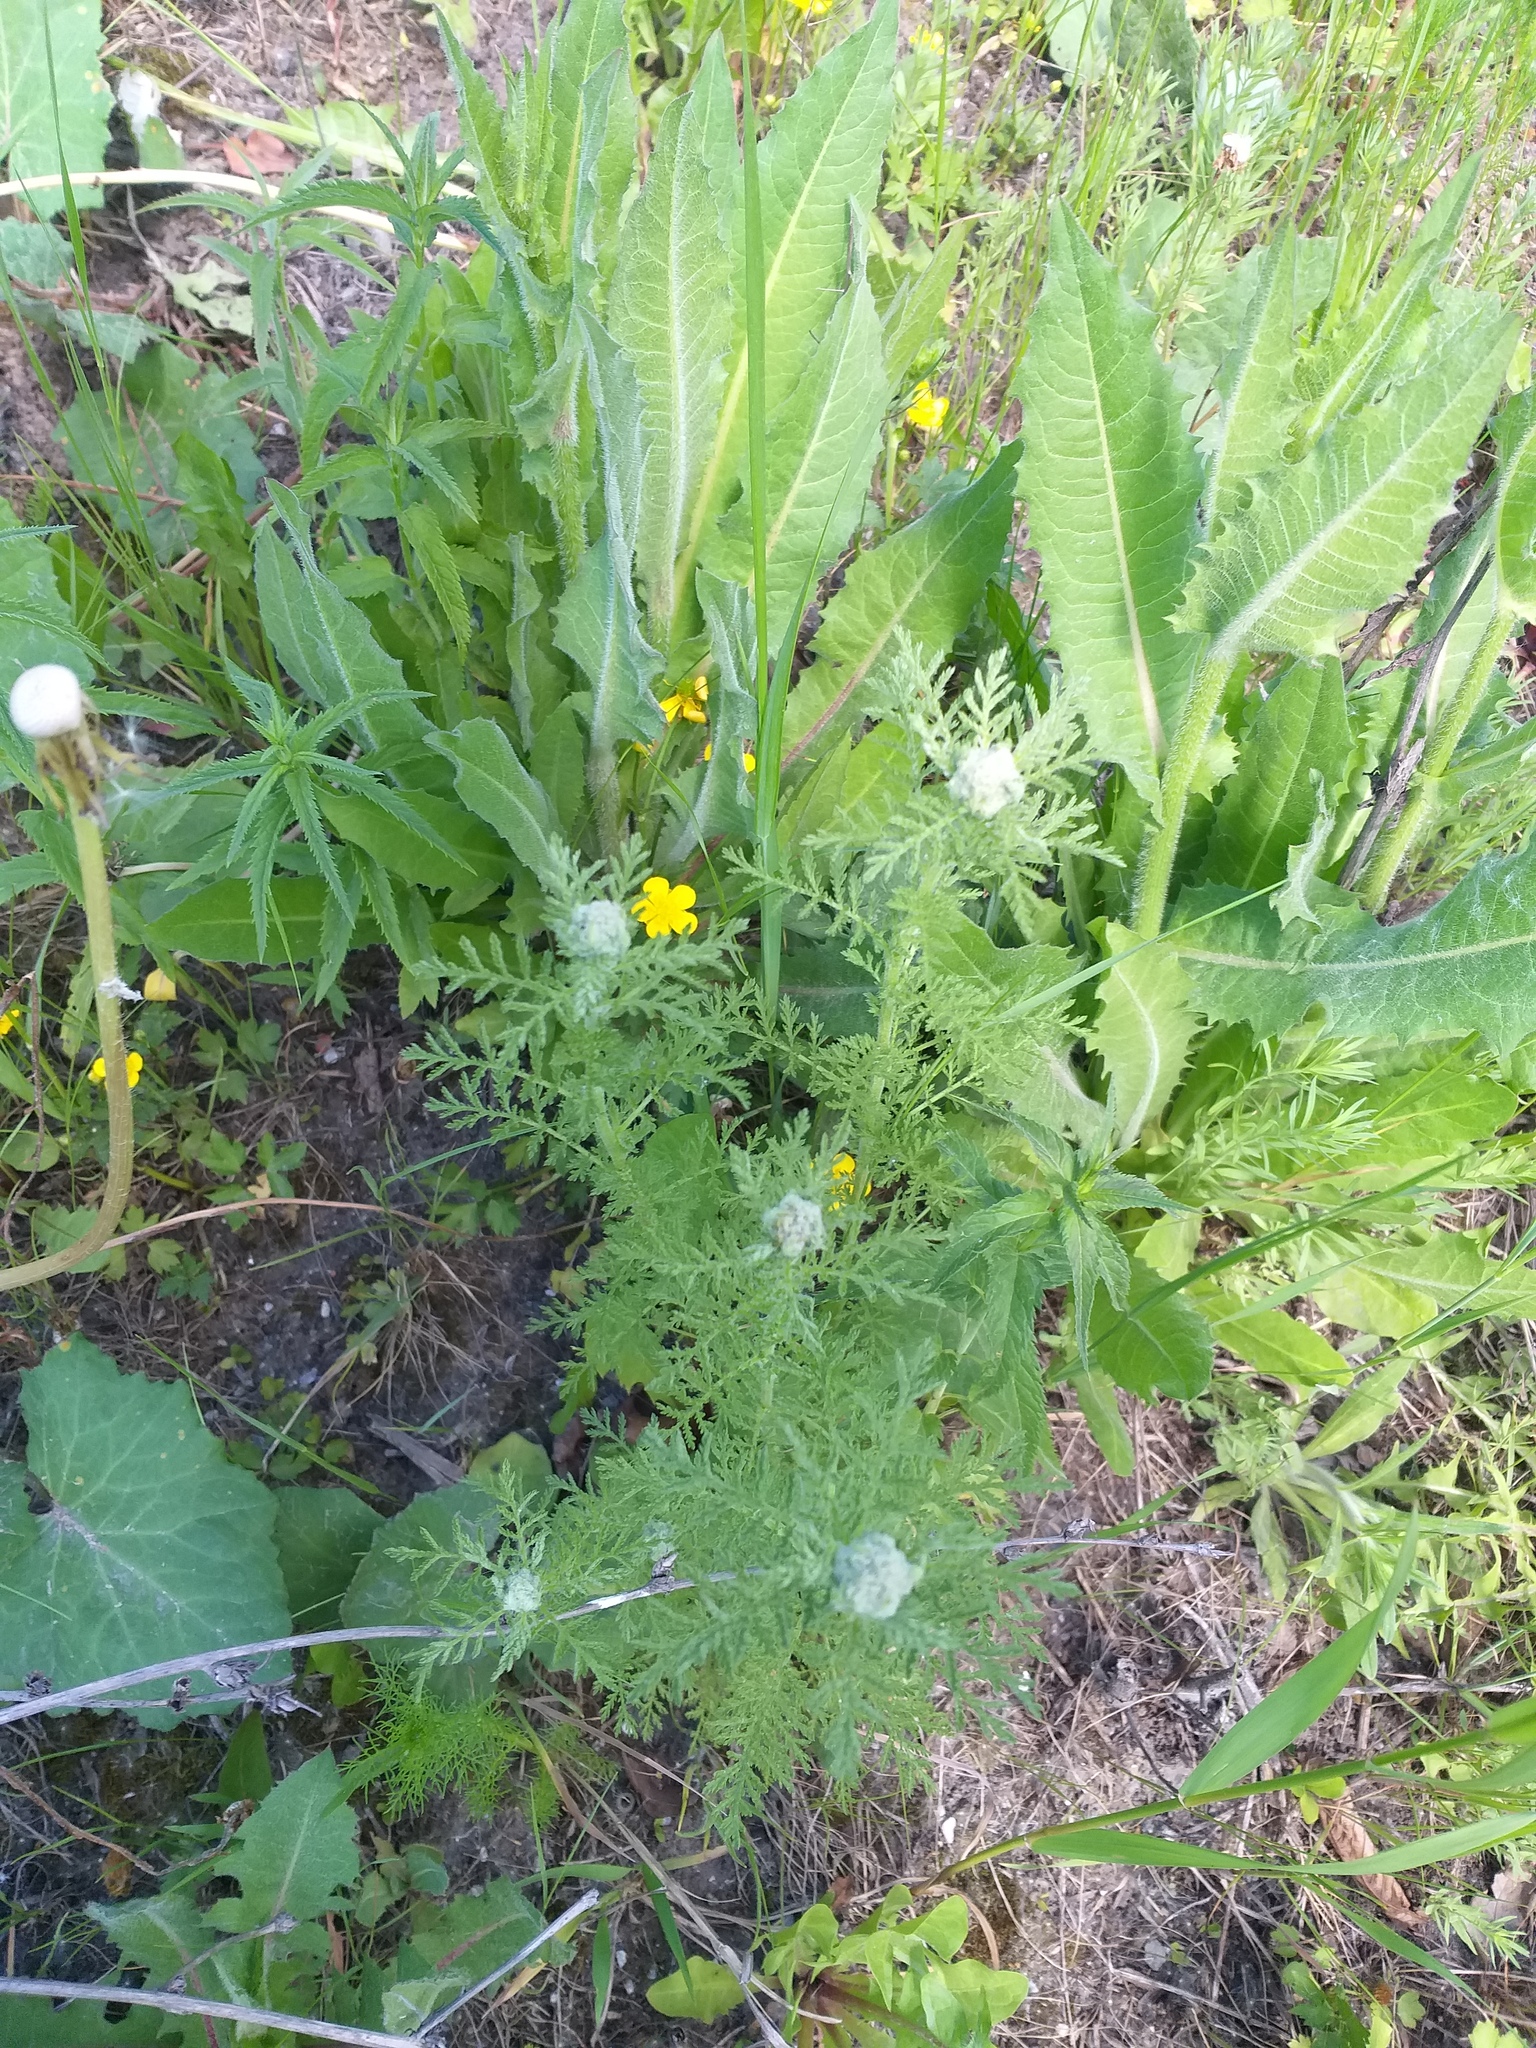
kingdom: Plantae
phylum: Tracheophyta
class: Magnoliopsida
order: Asterales
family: Asteraceae
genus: Achillea
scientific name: Achillea nobilis
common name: Noble yarrow
